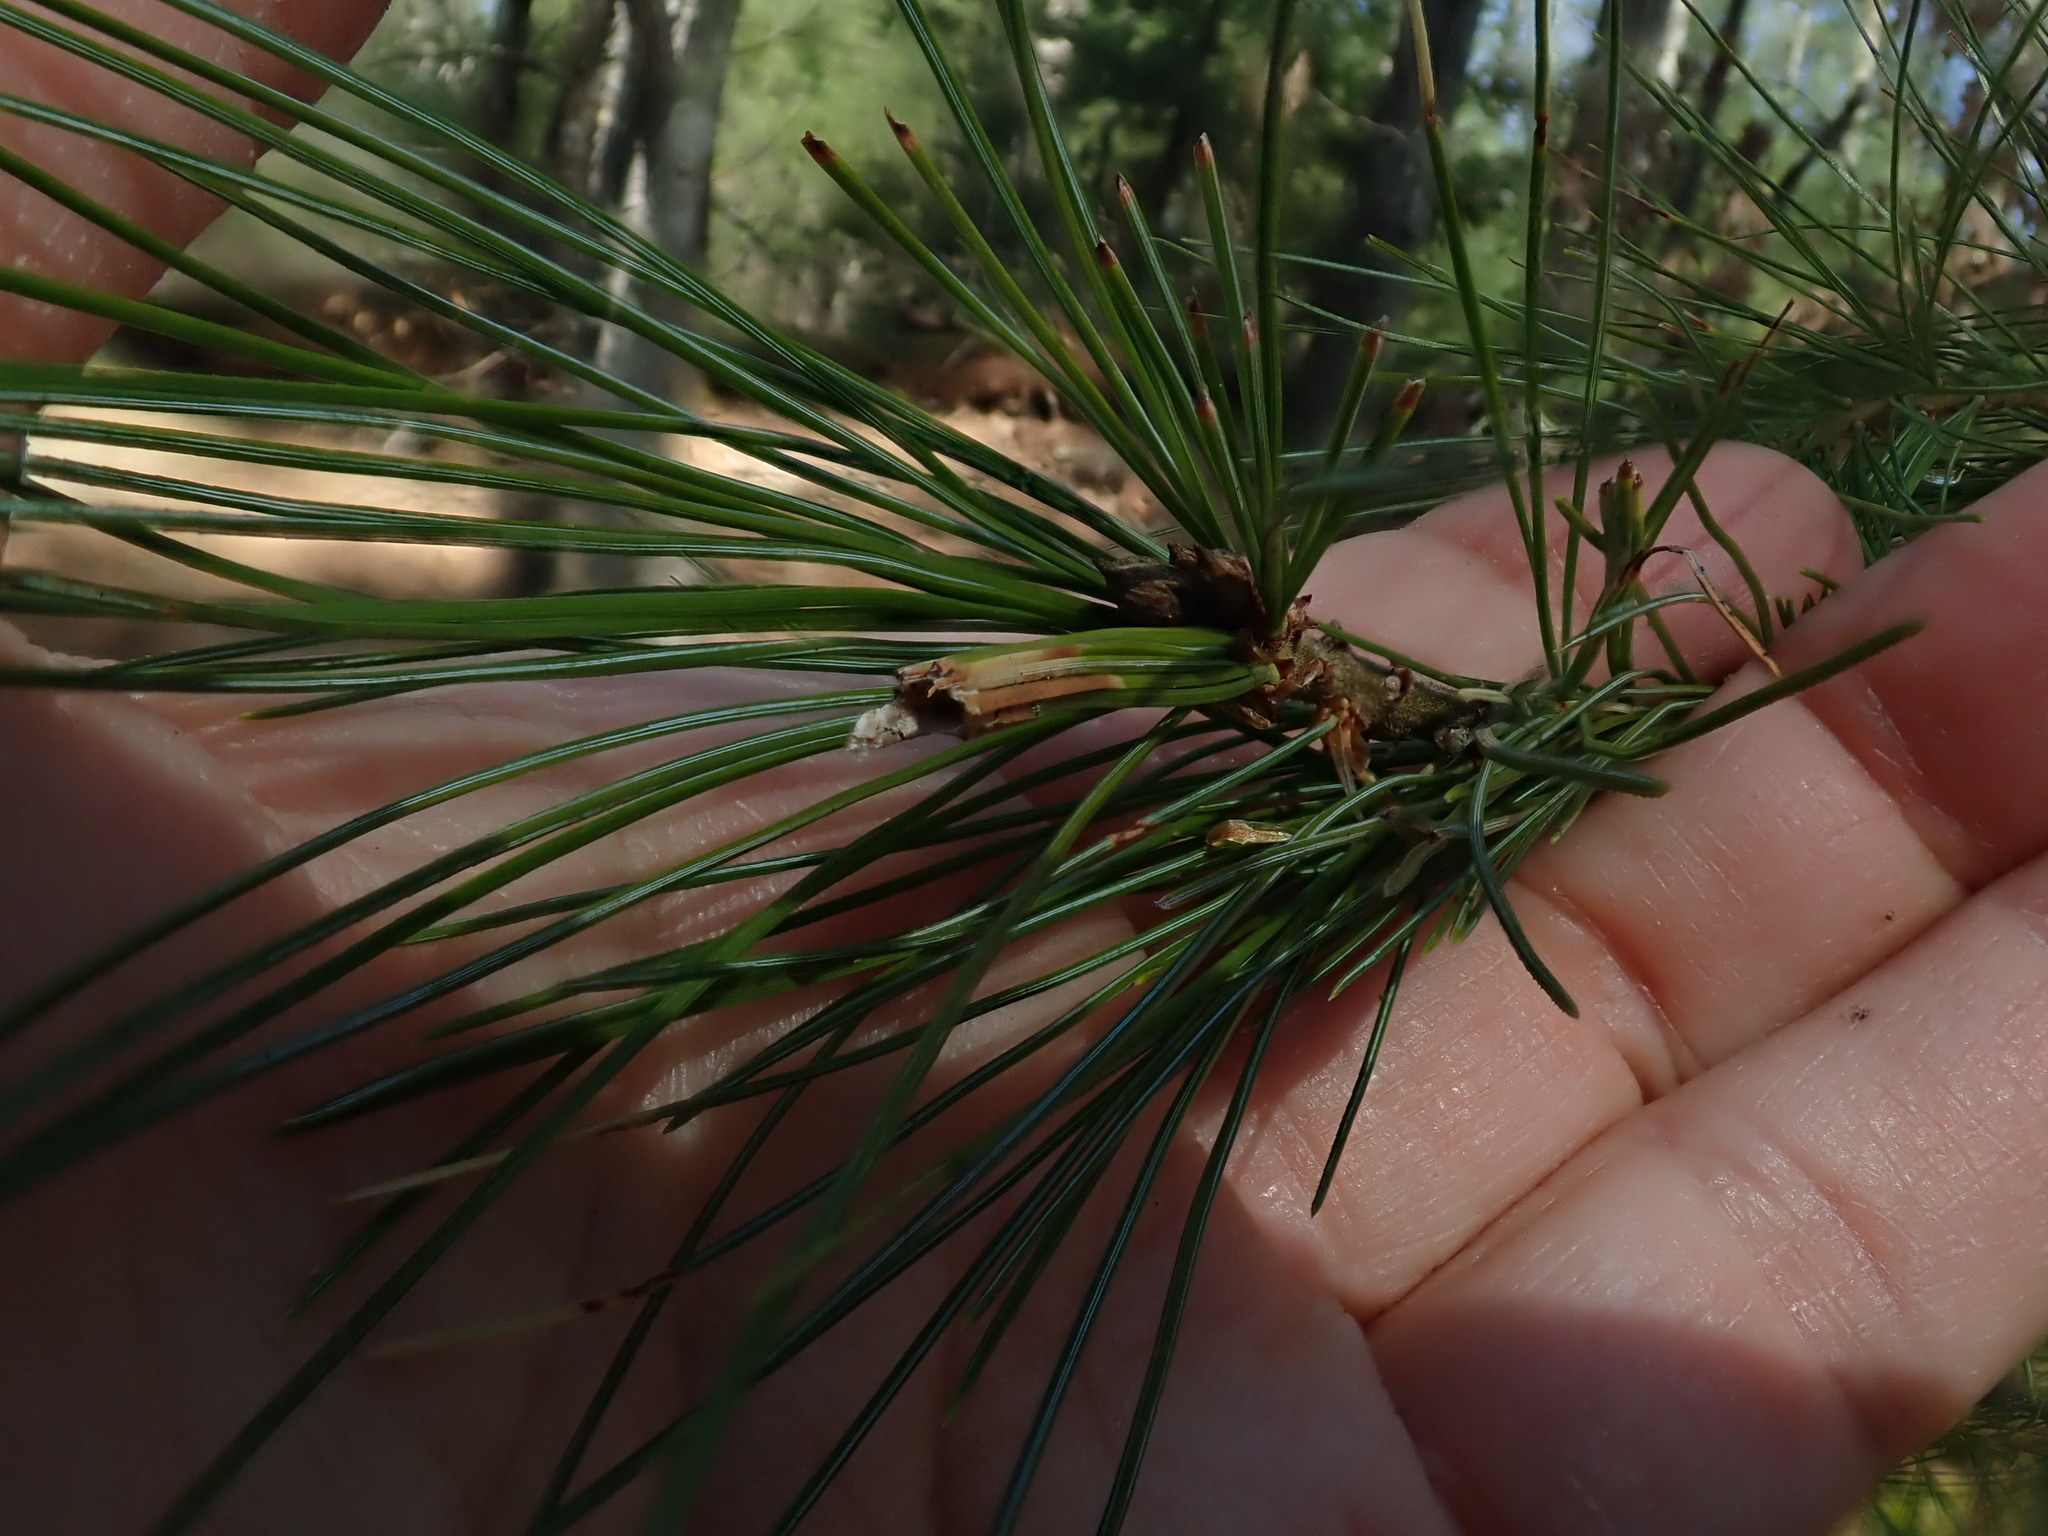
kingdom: Animalia
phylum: Arthropoda
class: Insecta
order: Lepidoptera
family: Tortricidae
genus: Argyrotaenia
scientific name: Argyrotaenia pinatubana
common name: Pine tube moth
